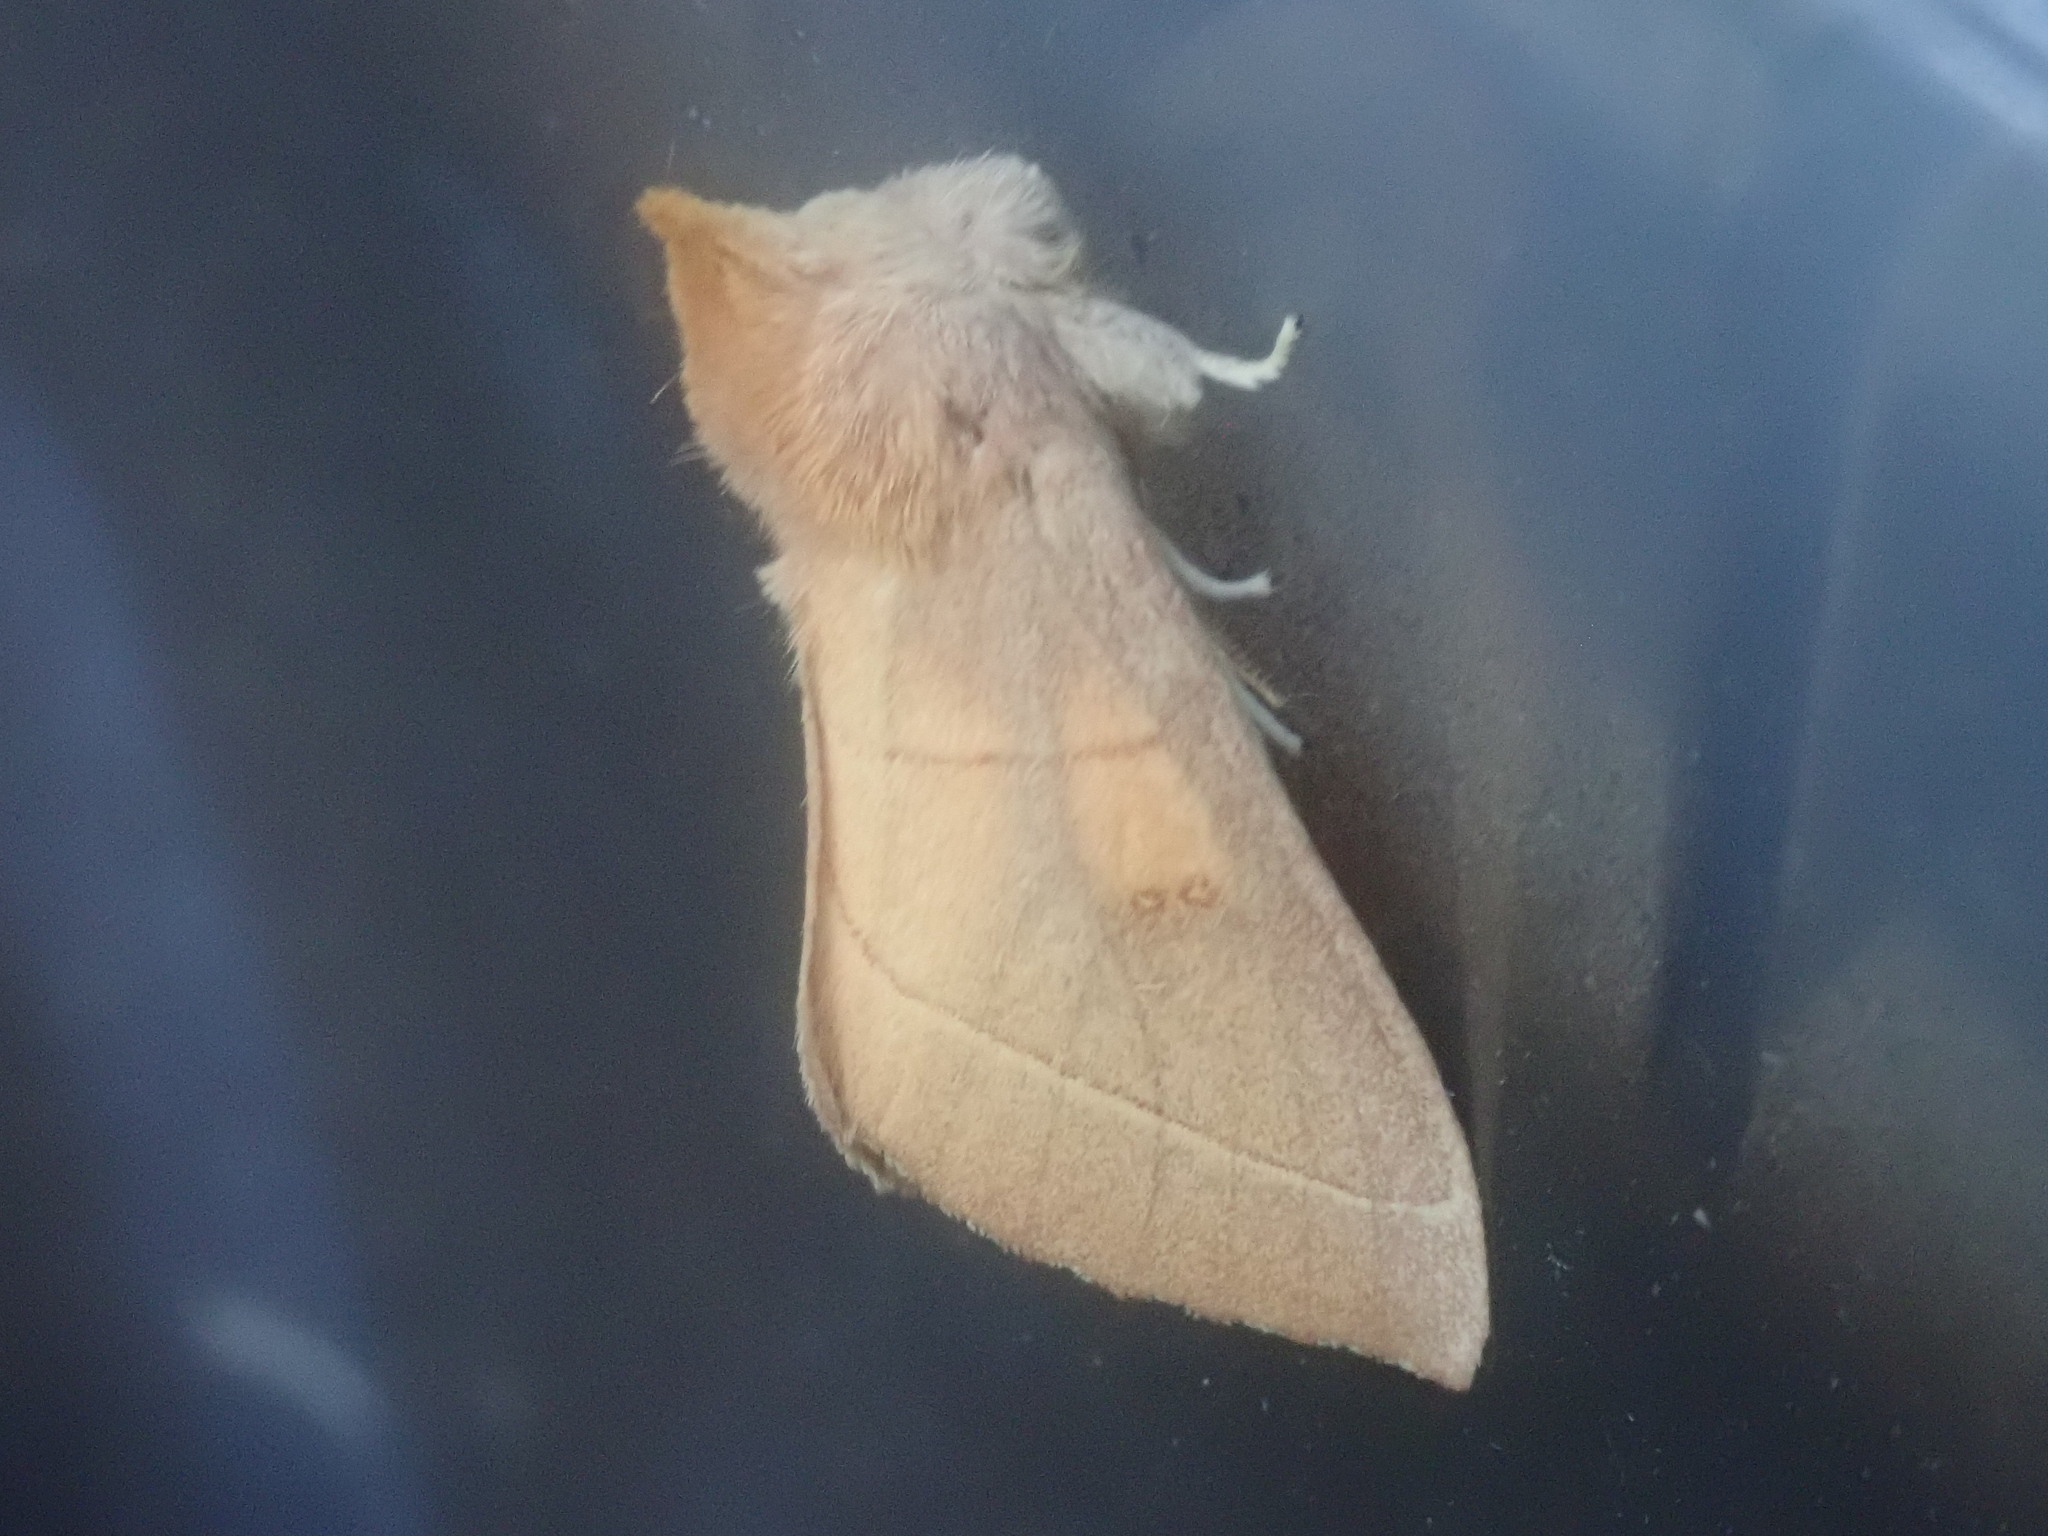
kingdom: Animalia
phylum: Arthropoda
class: Insecta
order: Lepidoptera
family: Notodontidae
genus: Nadata
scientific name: Nadata gibbosa
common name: White-dotted prominent
